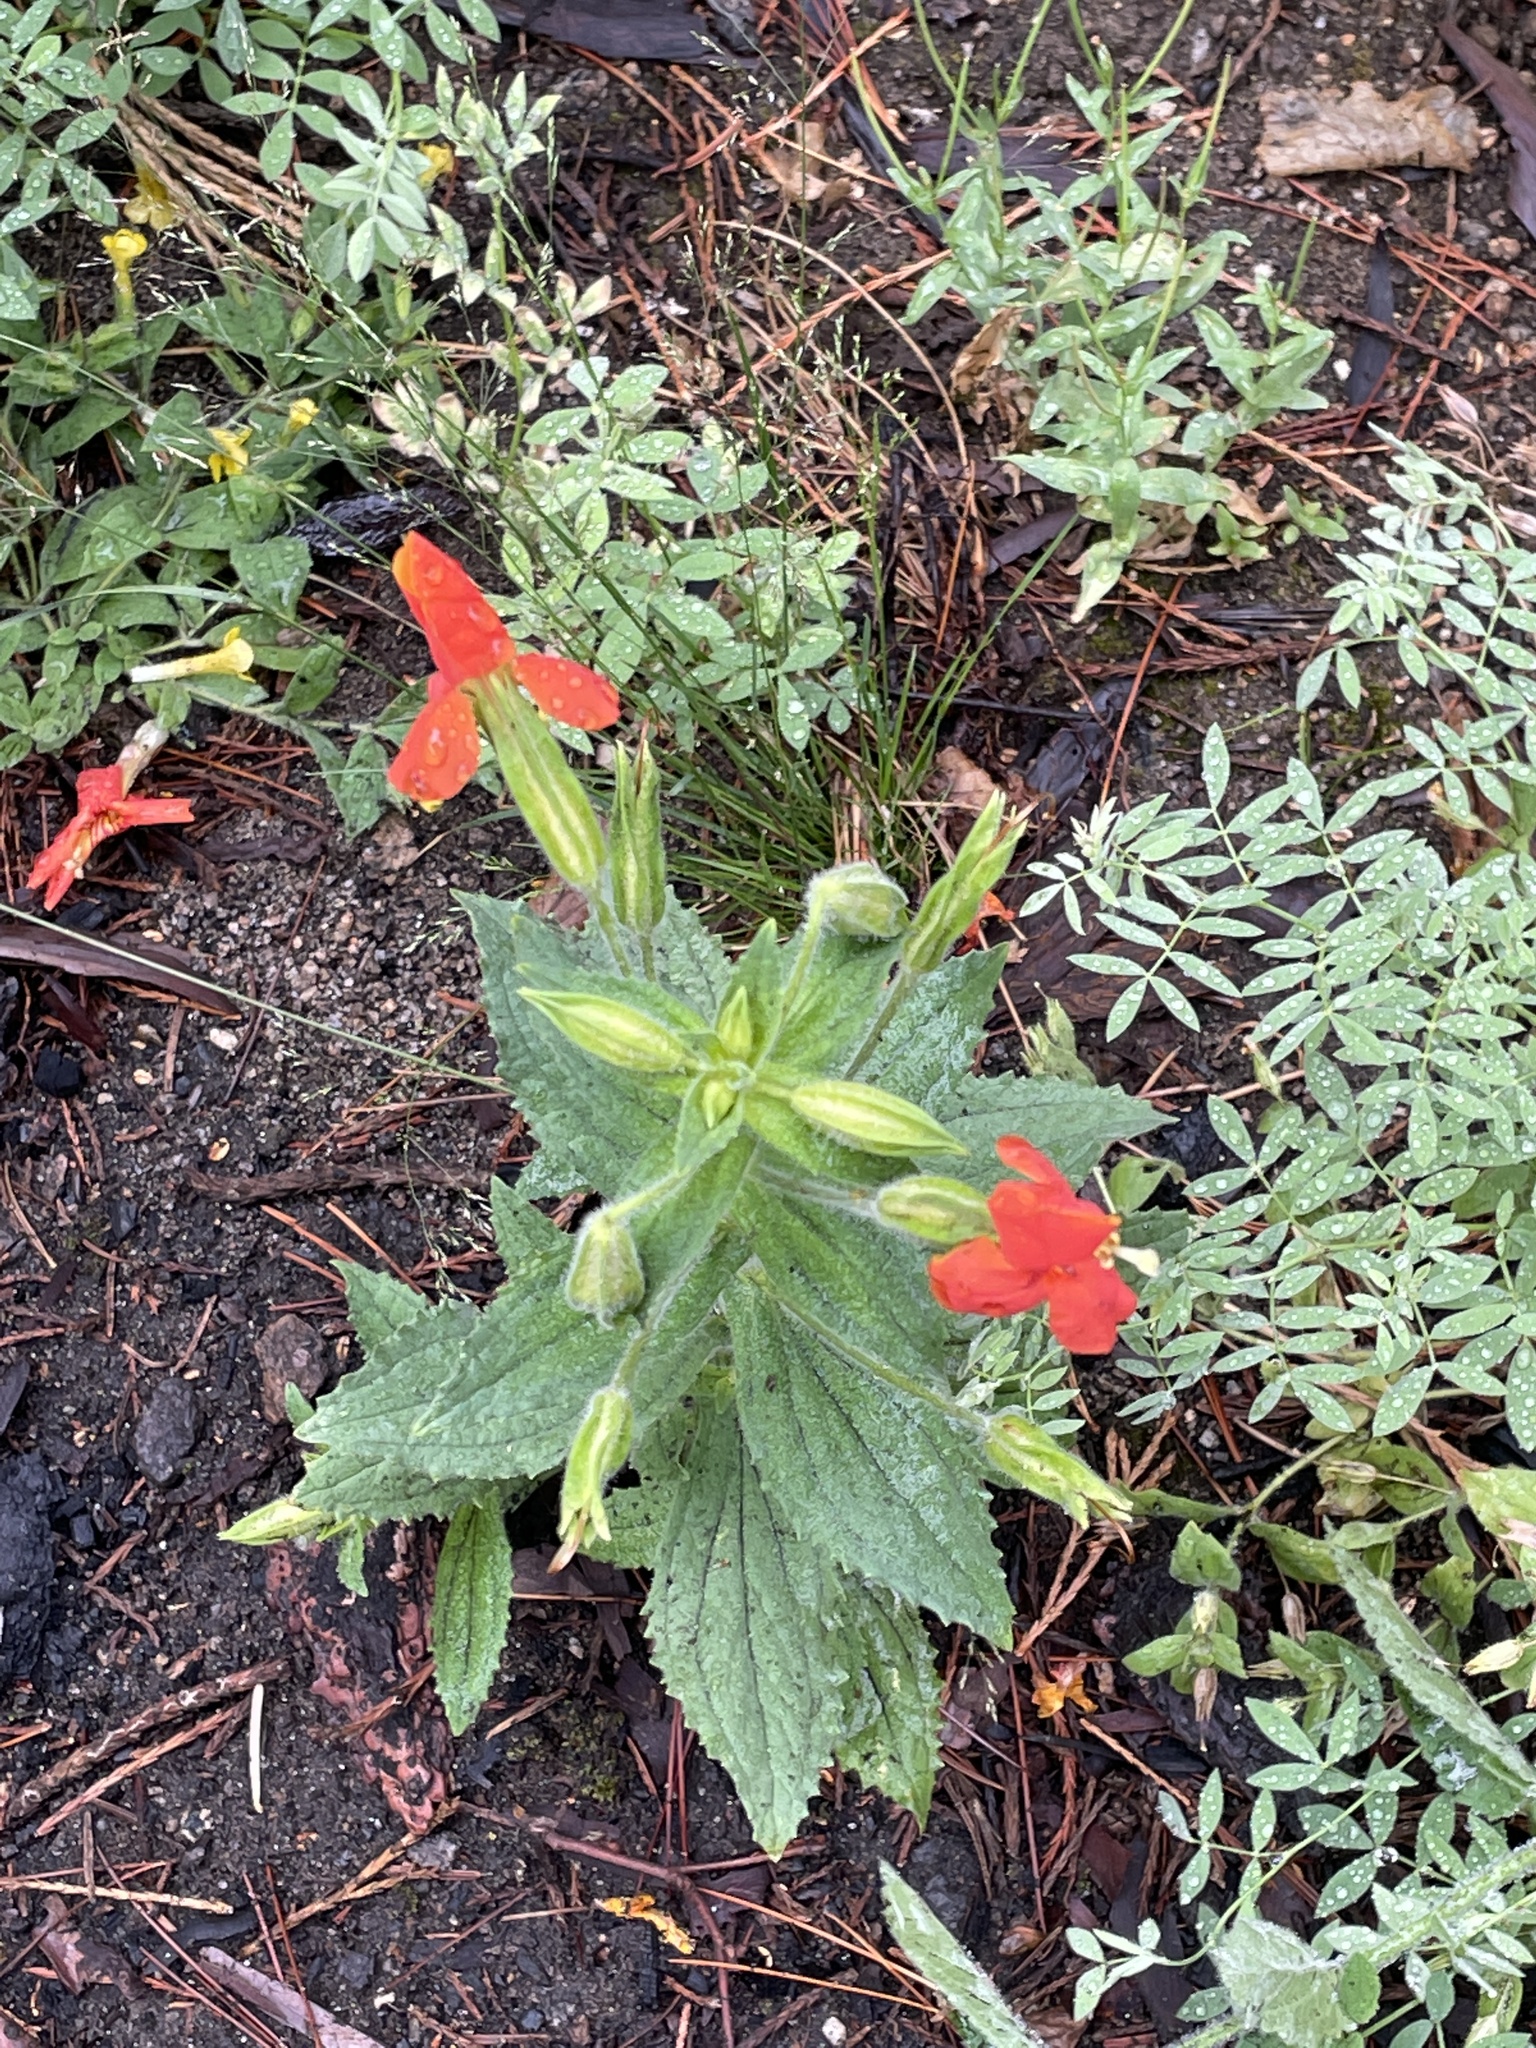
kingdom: Plantae
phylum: Tracheophyta
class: Magnoliopsida
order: Lamiales
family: Phrymaceae
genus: Erythranthe
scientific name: Erythranthe cardinalis
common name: Scarlet monkey-flower
